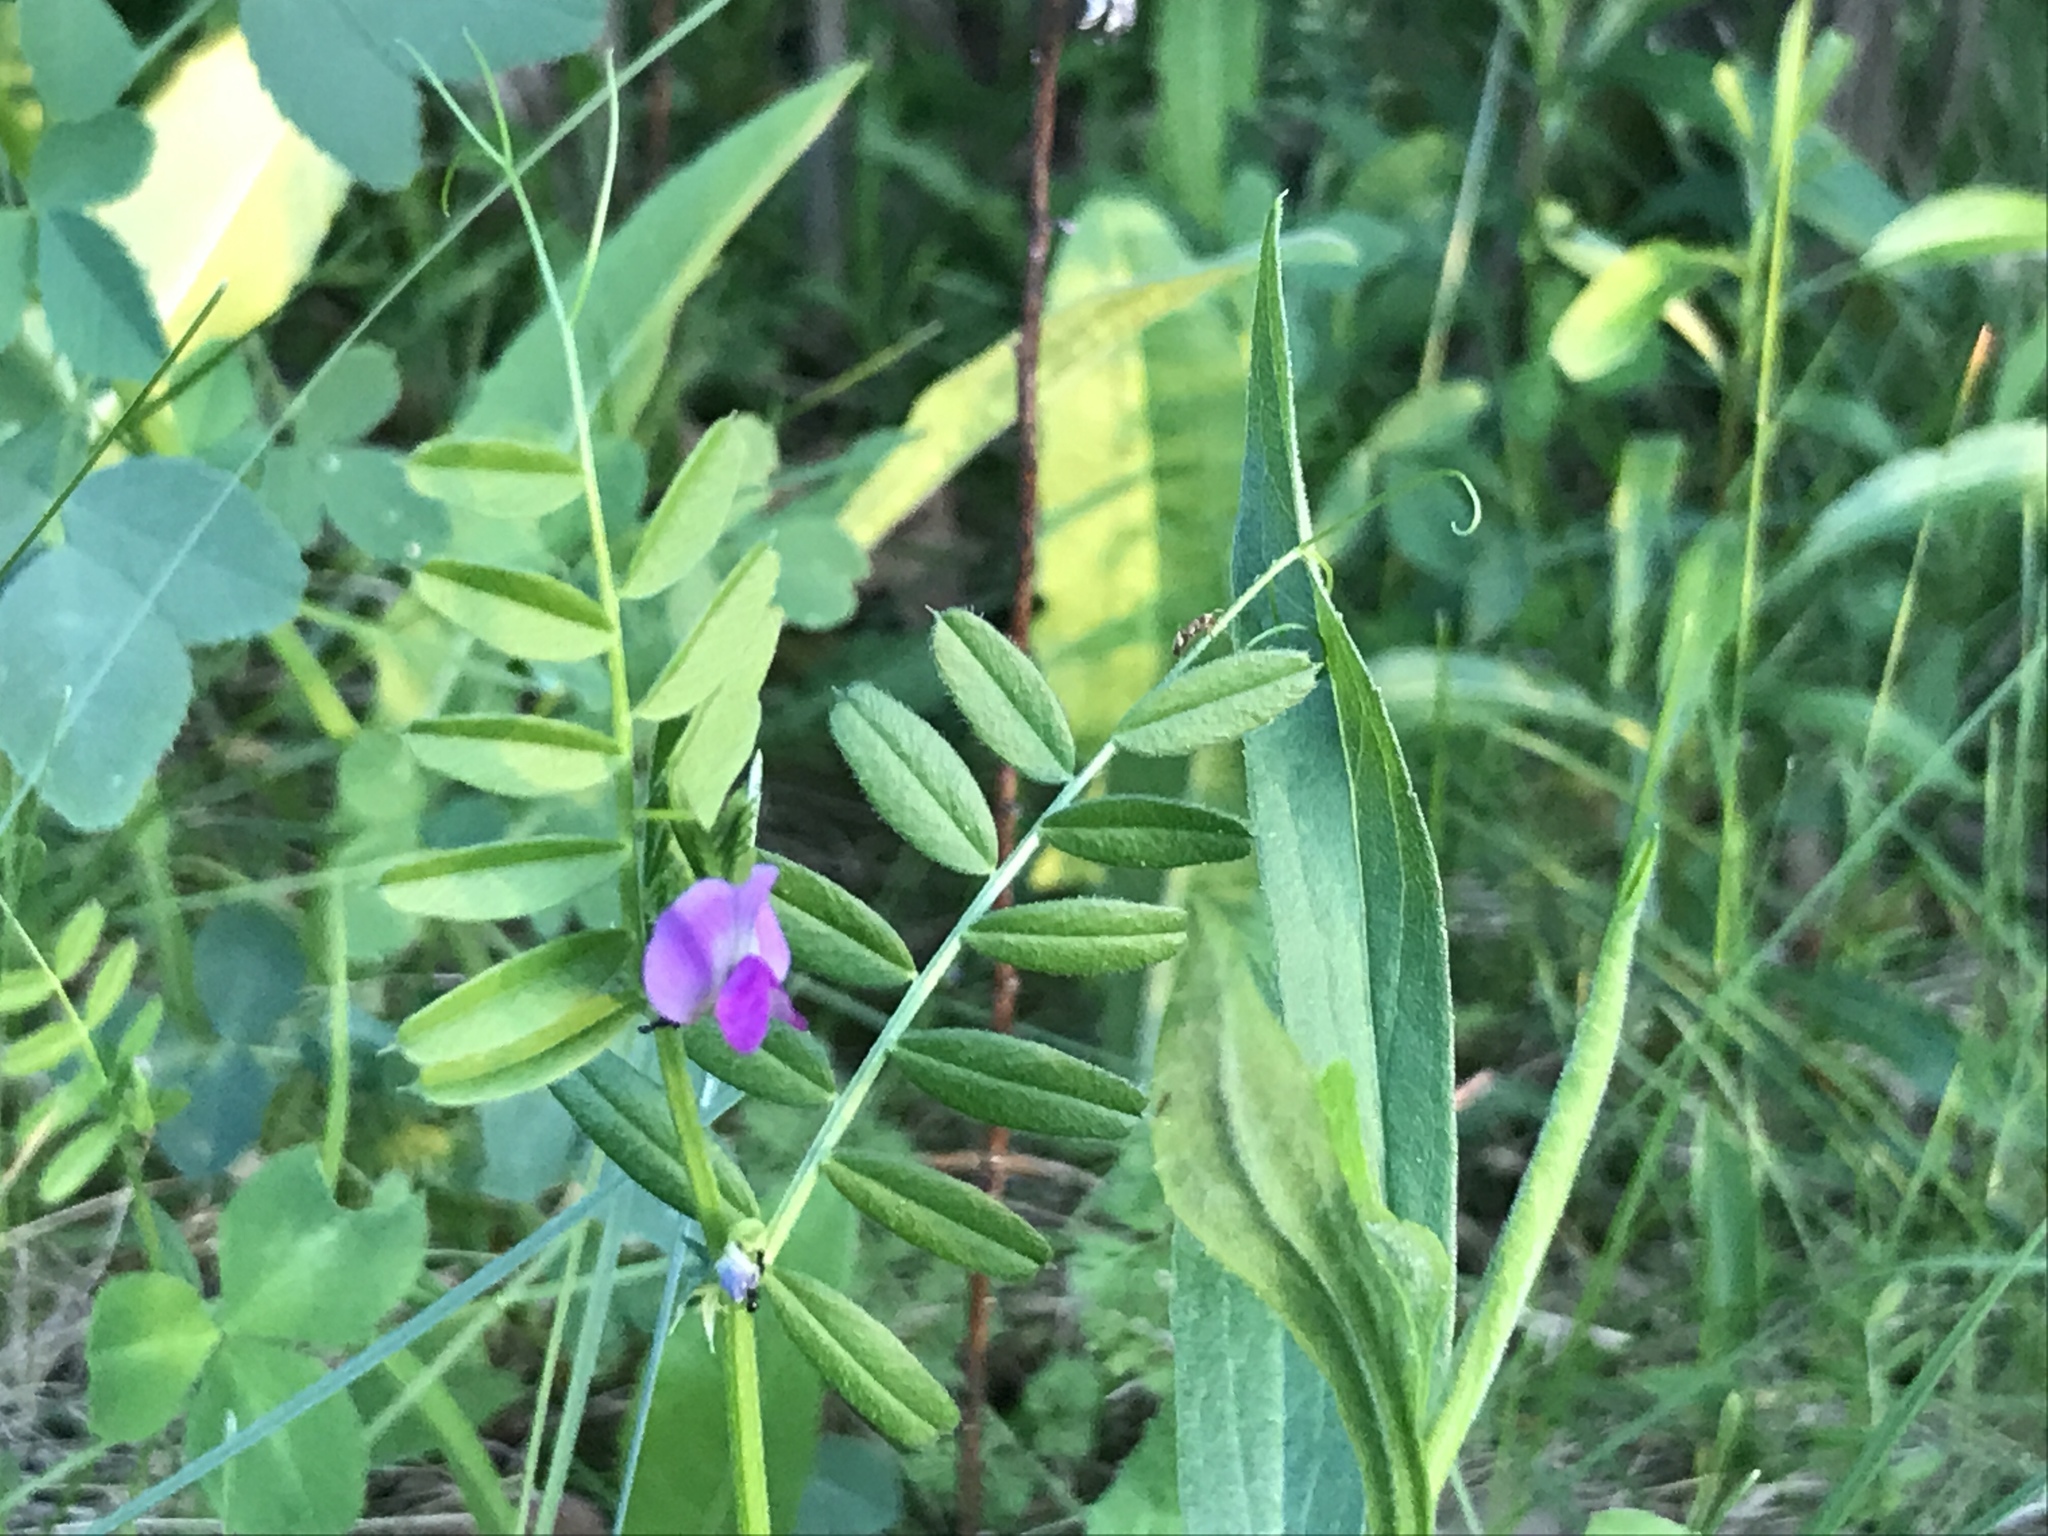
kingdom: Plantae
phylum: Tracheophyta
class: Magnoliopsida
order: Fabales
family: Fabaceae
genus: Vicia
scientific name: Vicia sativa
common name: Garden vetch
